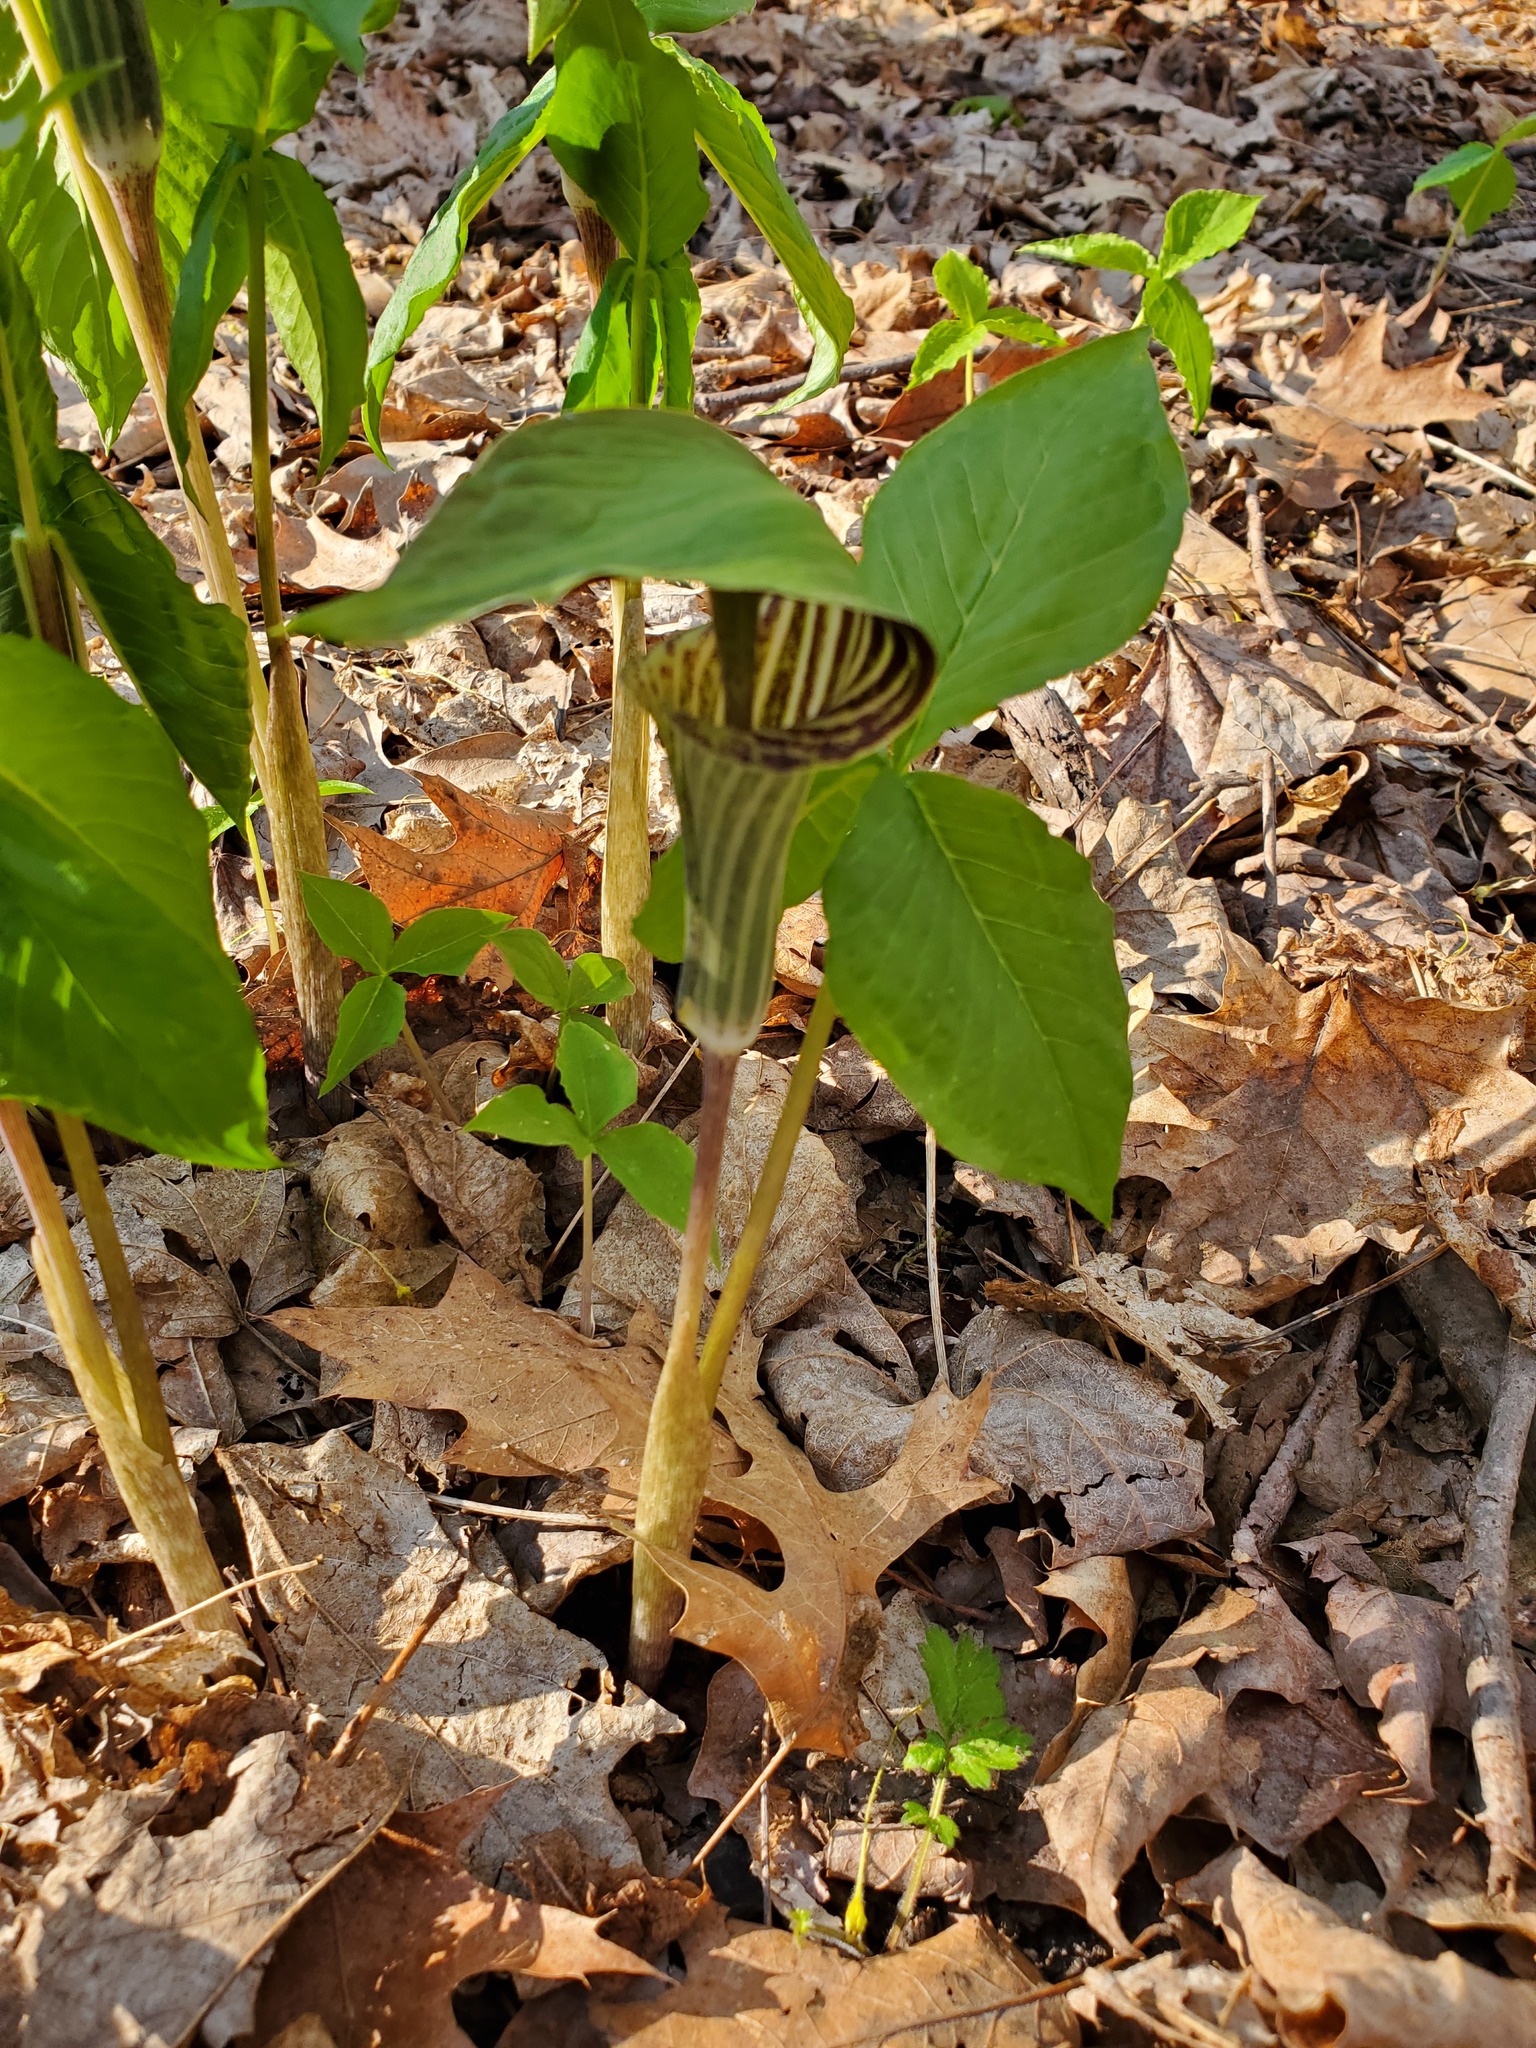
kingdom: Plantae
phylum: Tracheophyta
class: Liliopsida
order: Alismatales
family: Araceae
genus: Arisaema
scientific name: Arisaema triphyllum
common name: Jack-in-the-pulpit
